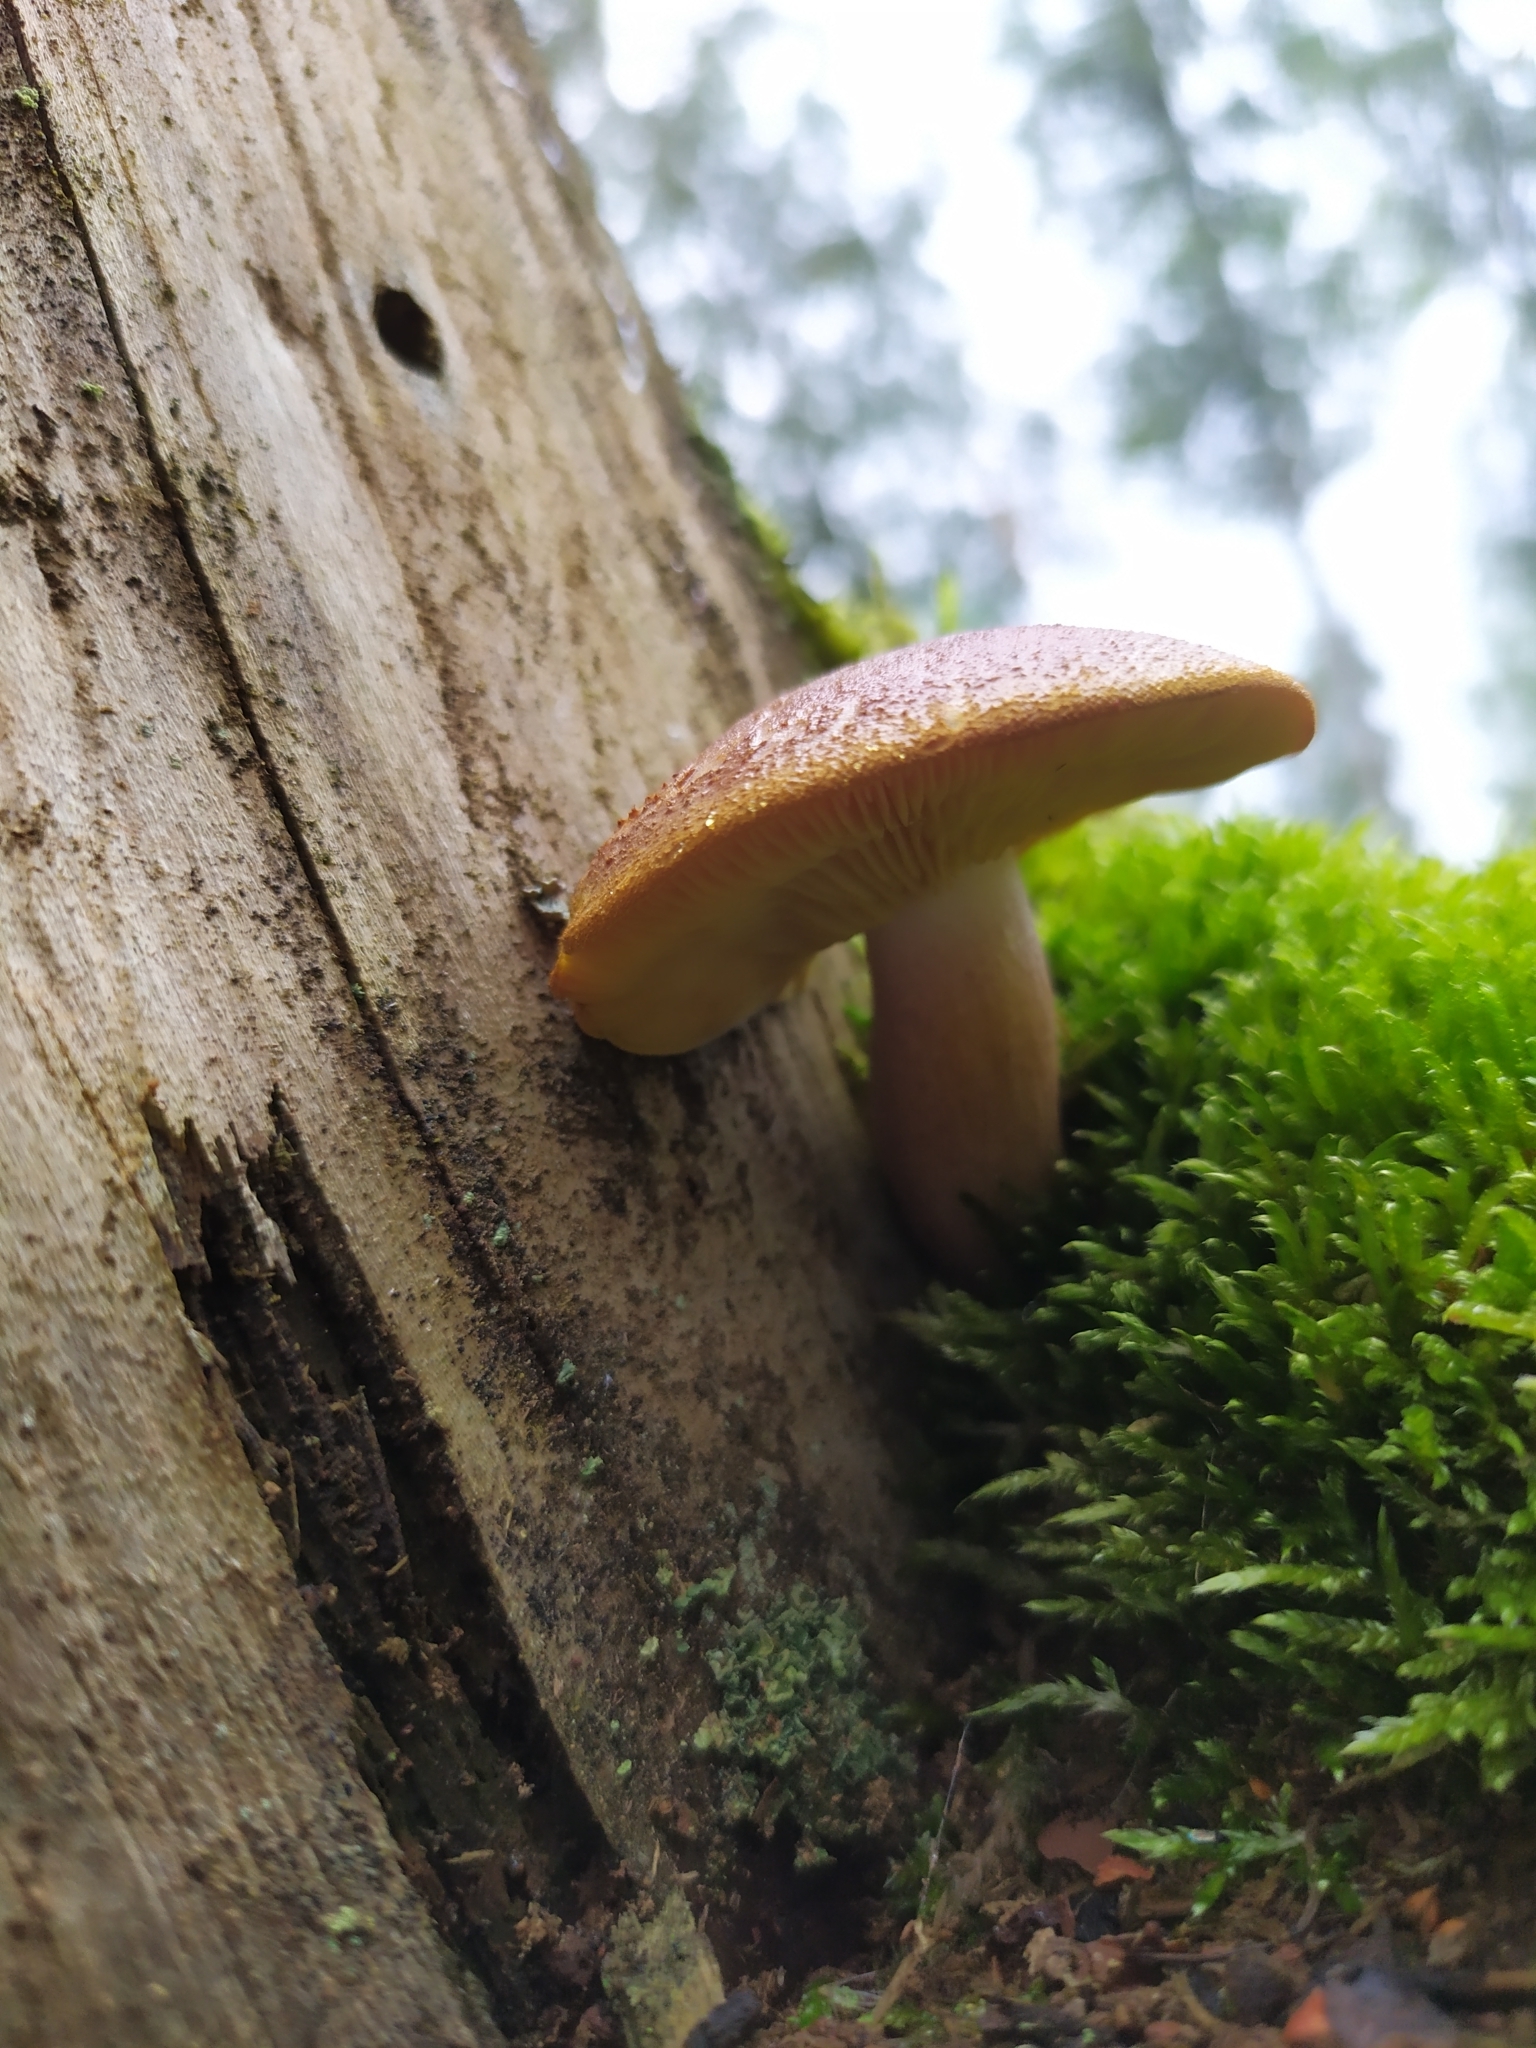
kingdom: Fungi
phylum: Basidiomycota
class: Agaricomycetes
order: Agaricales
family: Tricholomataceae
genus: Tricholomopsis
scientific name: Tricholomopsis rutilans
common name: Plums and custard
